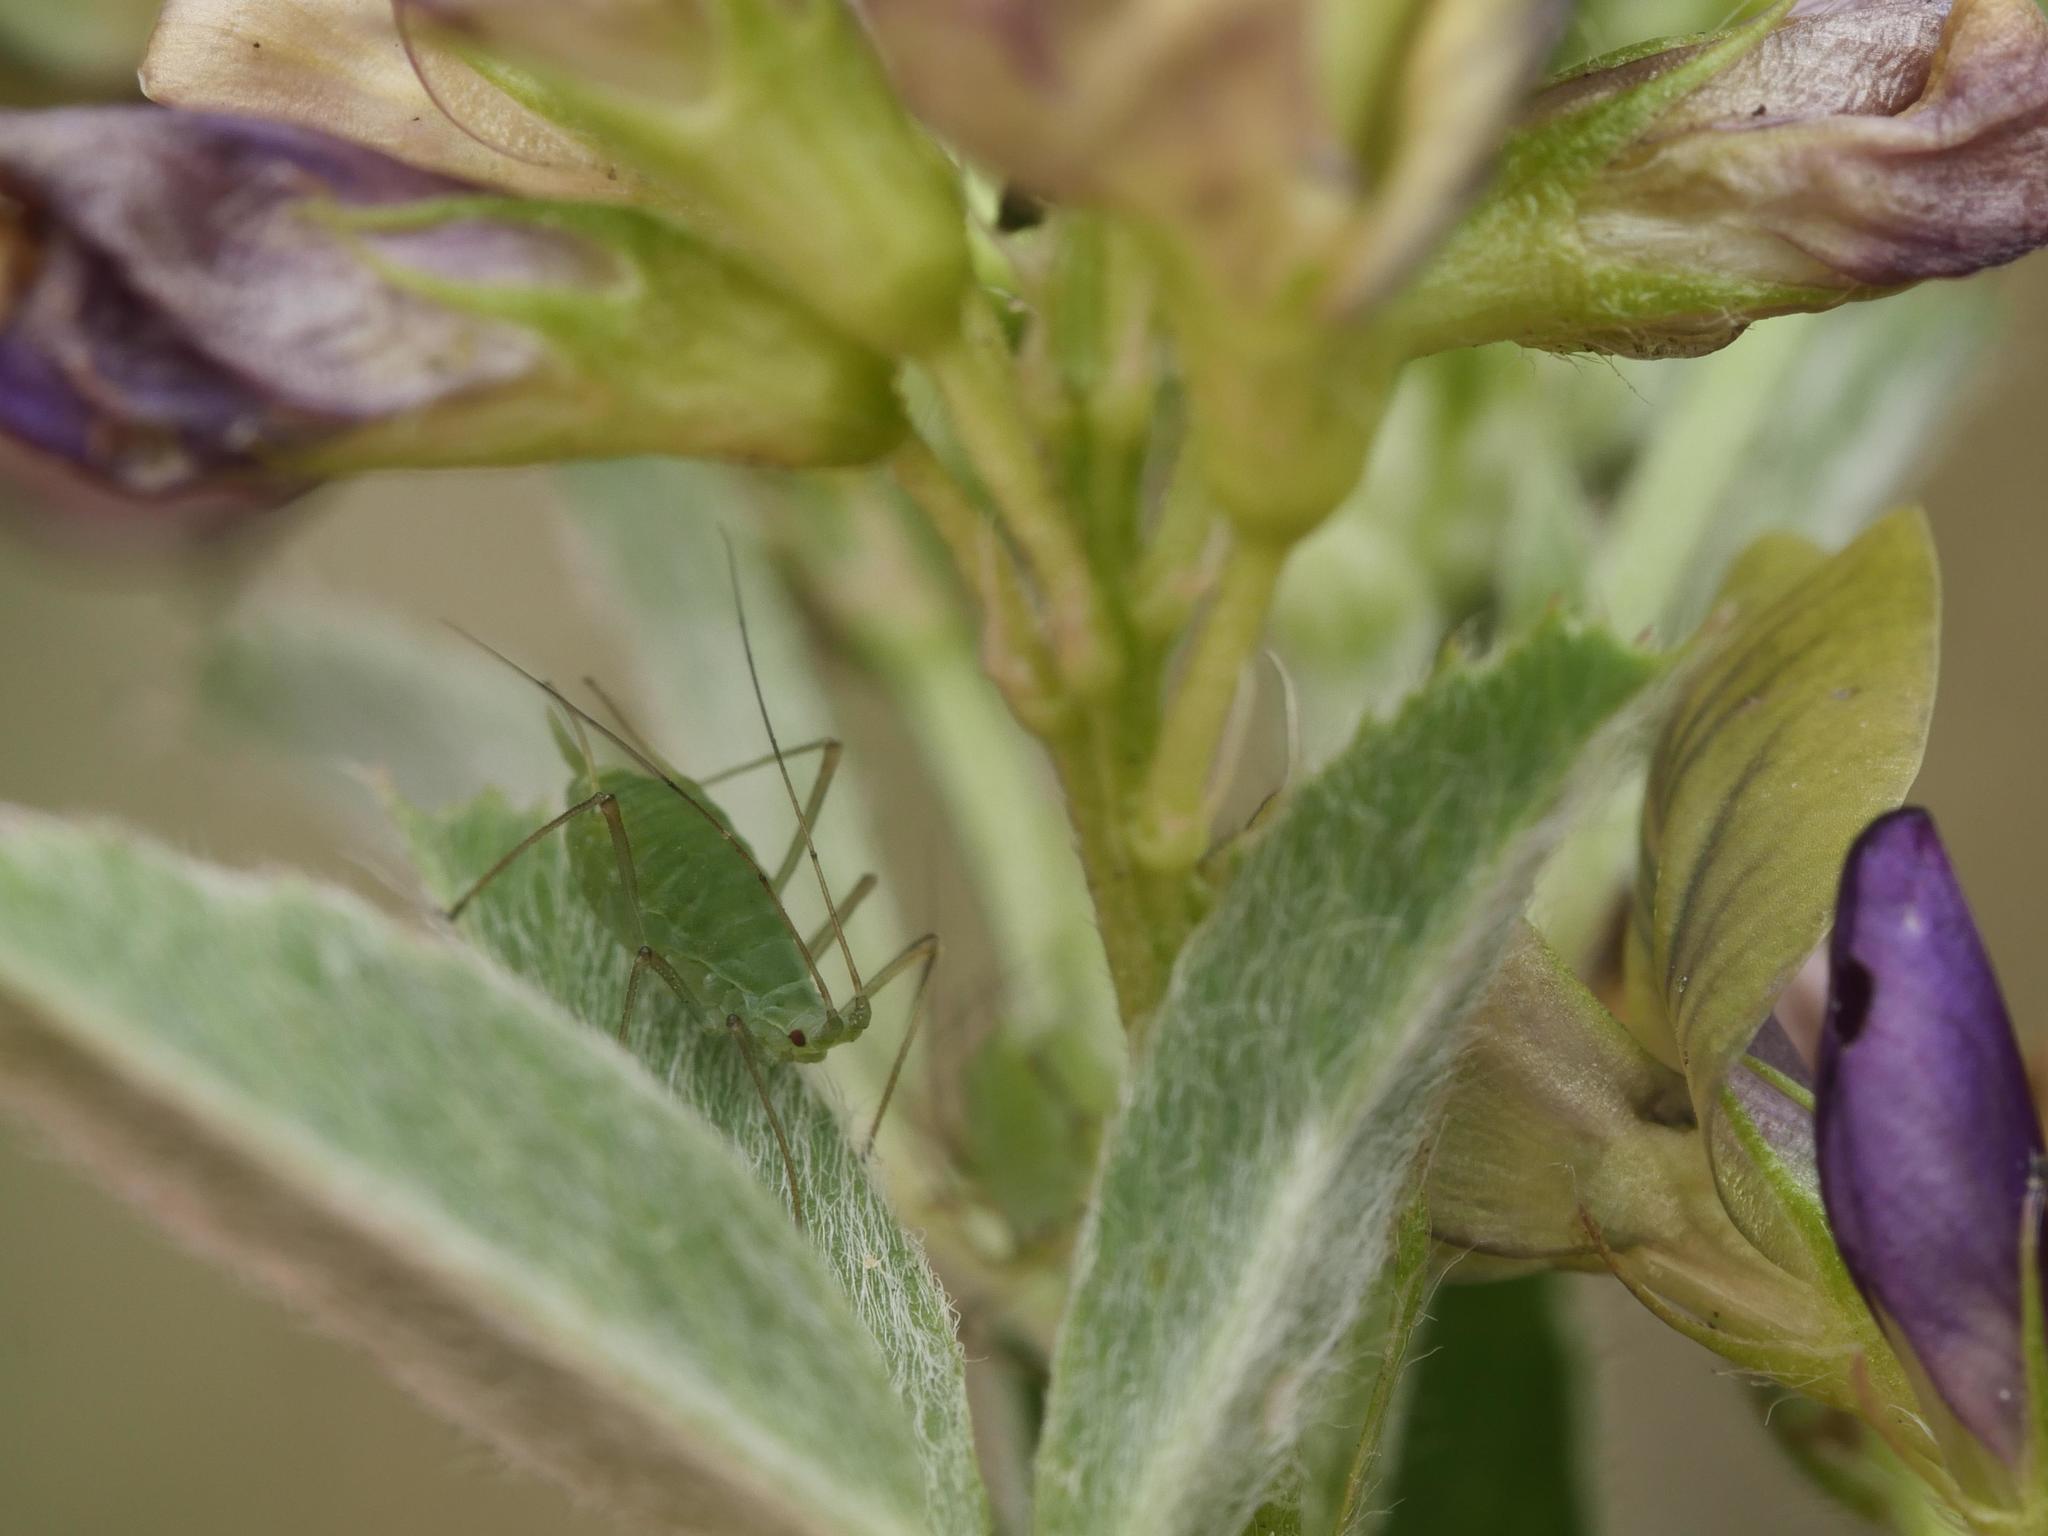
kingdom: Animalia
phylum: Arthropoda
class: Insecta
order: Hemiptera
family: Aphididae
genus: Acyrthosiphon
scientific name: Acyrthosiphon pisum
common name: Pea aphid
